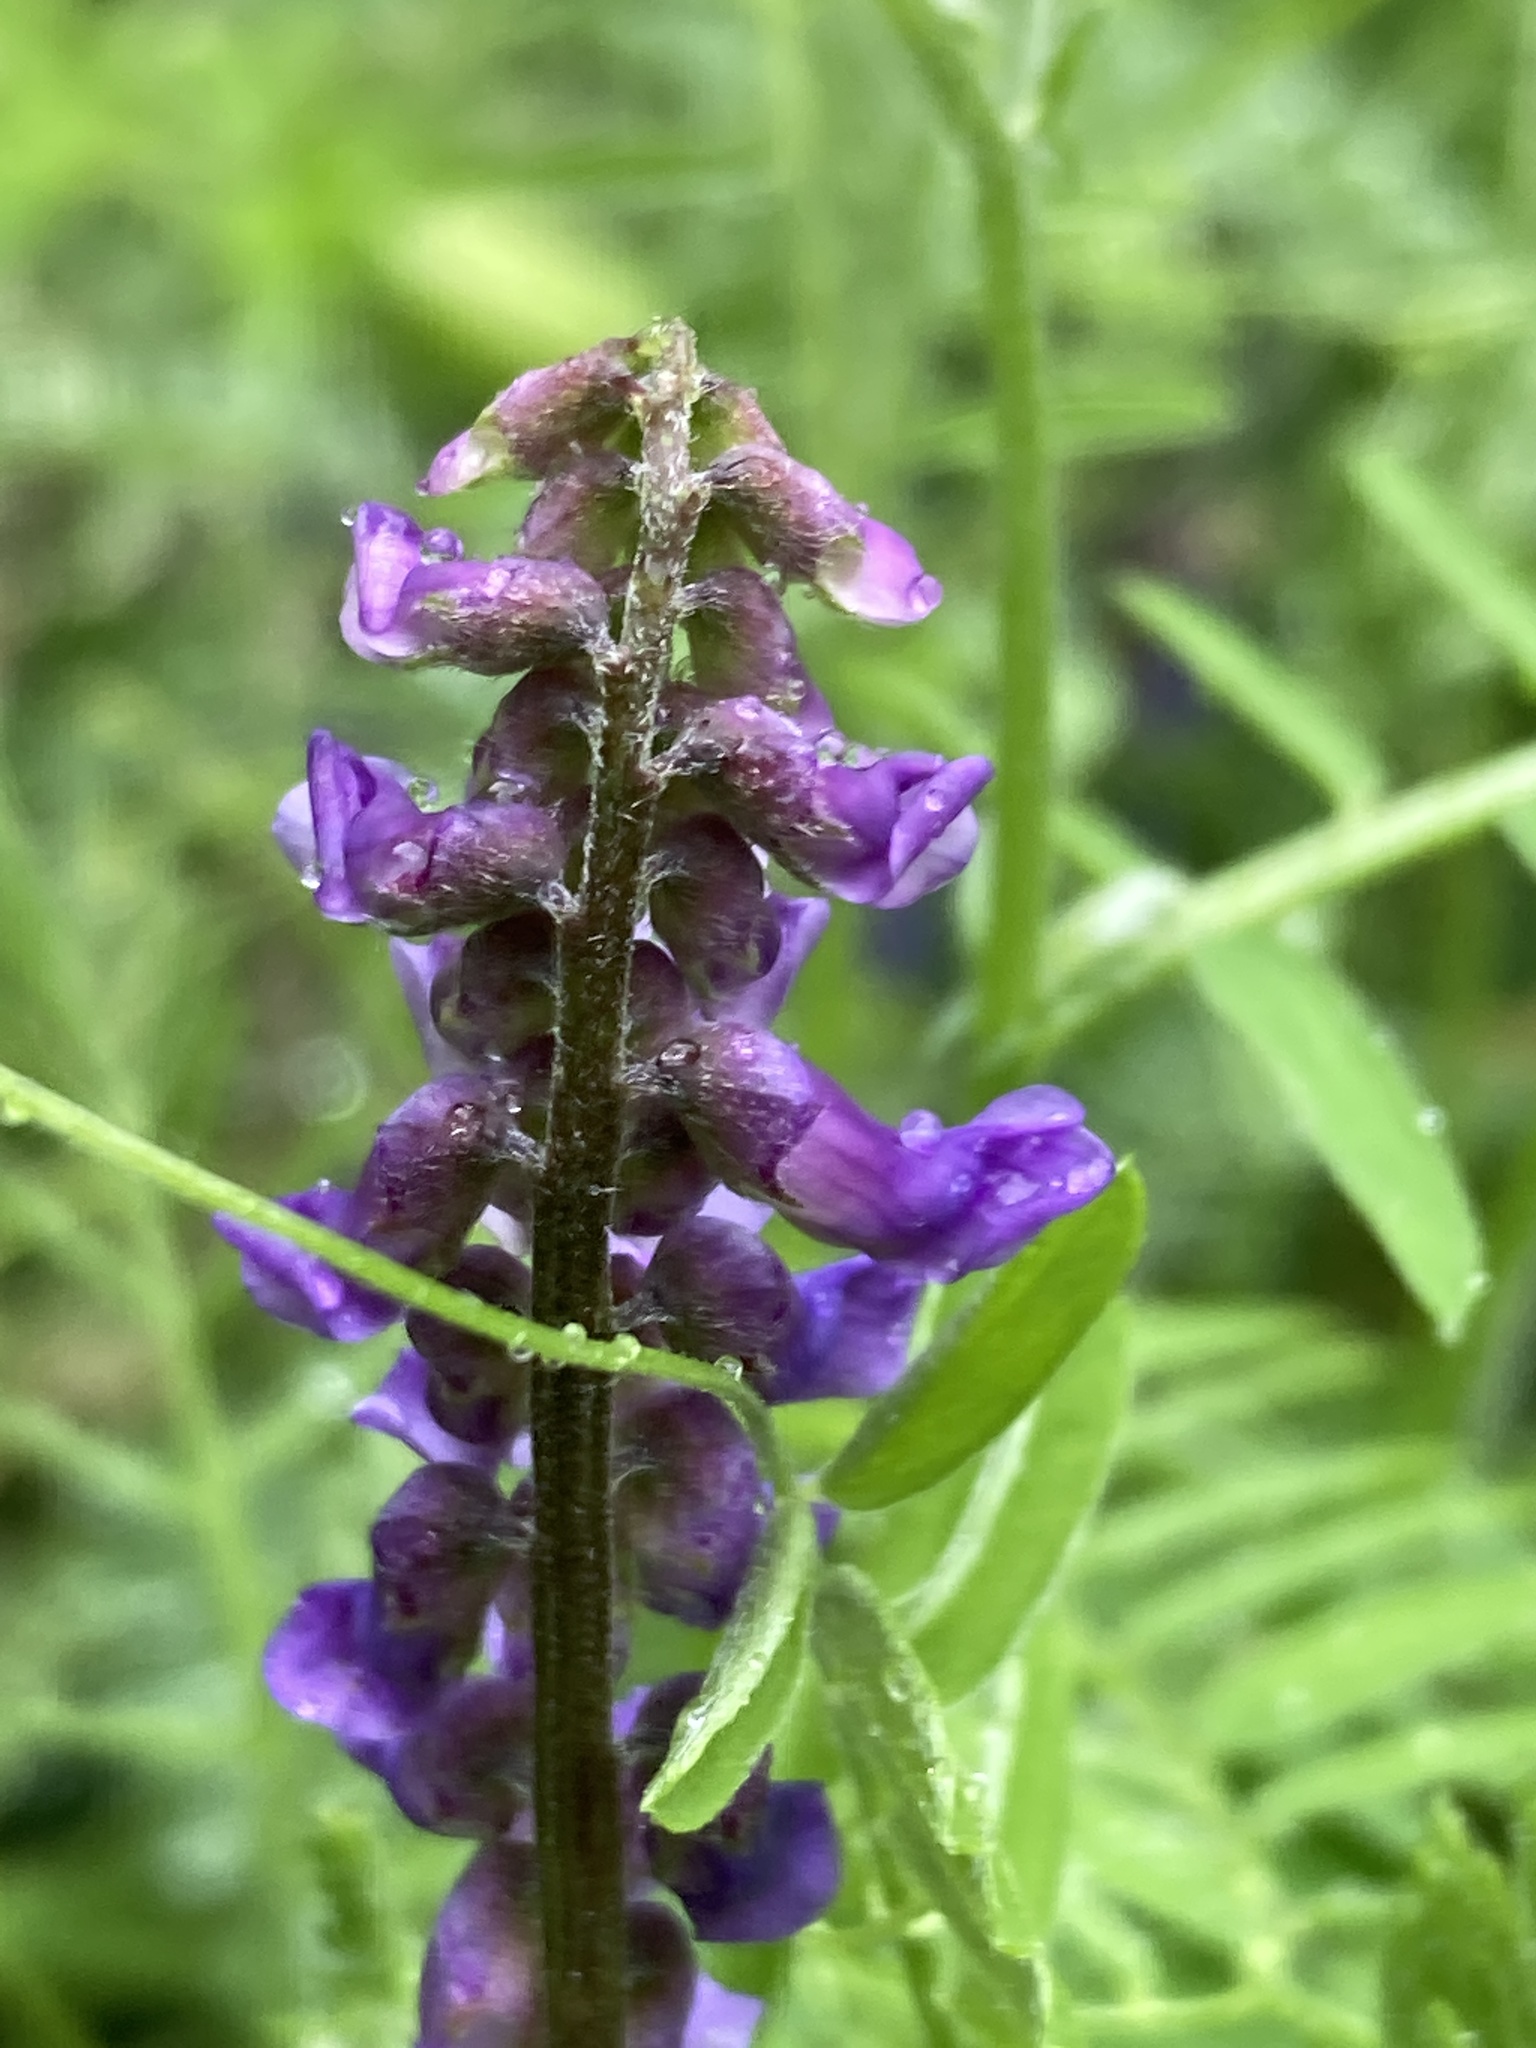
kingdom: Plantae
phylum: Tracheophyta
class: Magnoliopsida
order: Fabales
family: Fabaceae
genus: Vicia
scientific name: Vicia cracca
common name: Bird vetch
